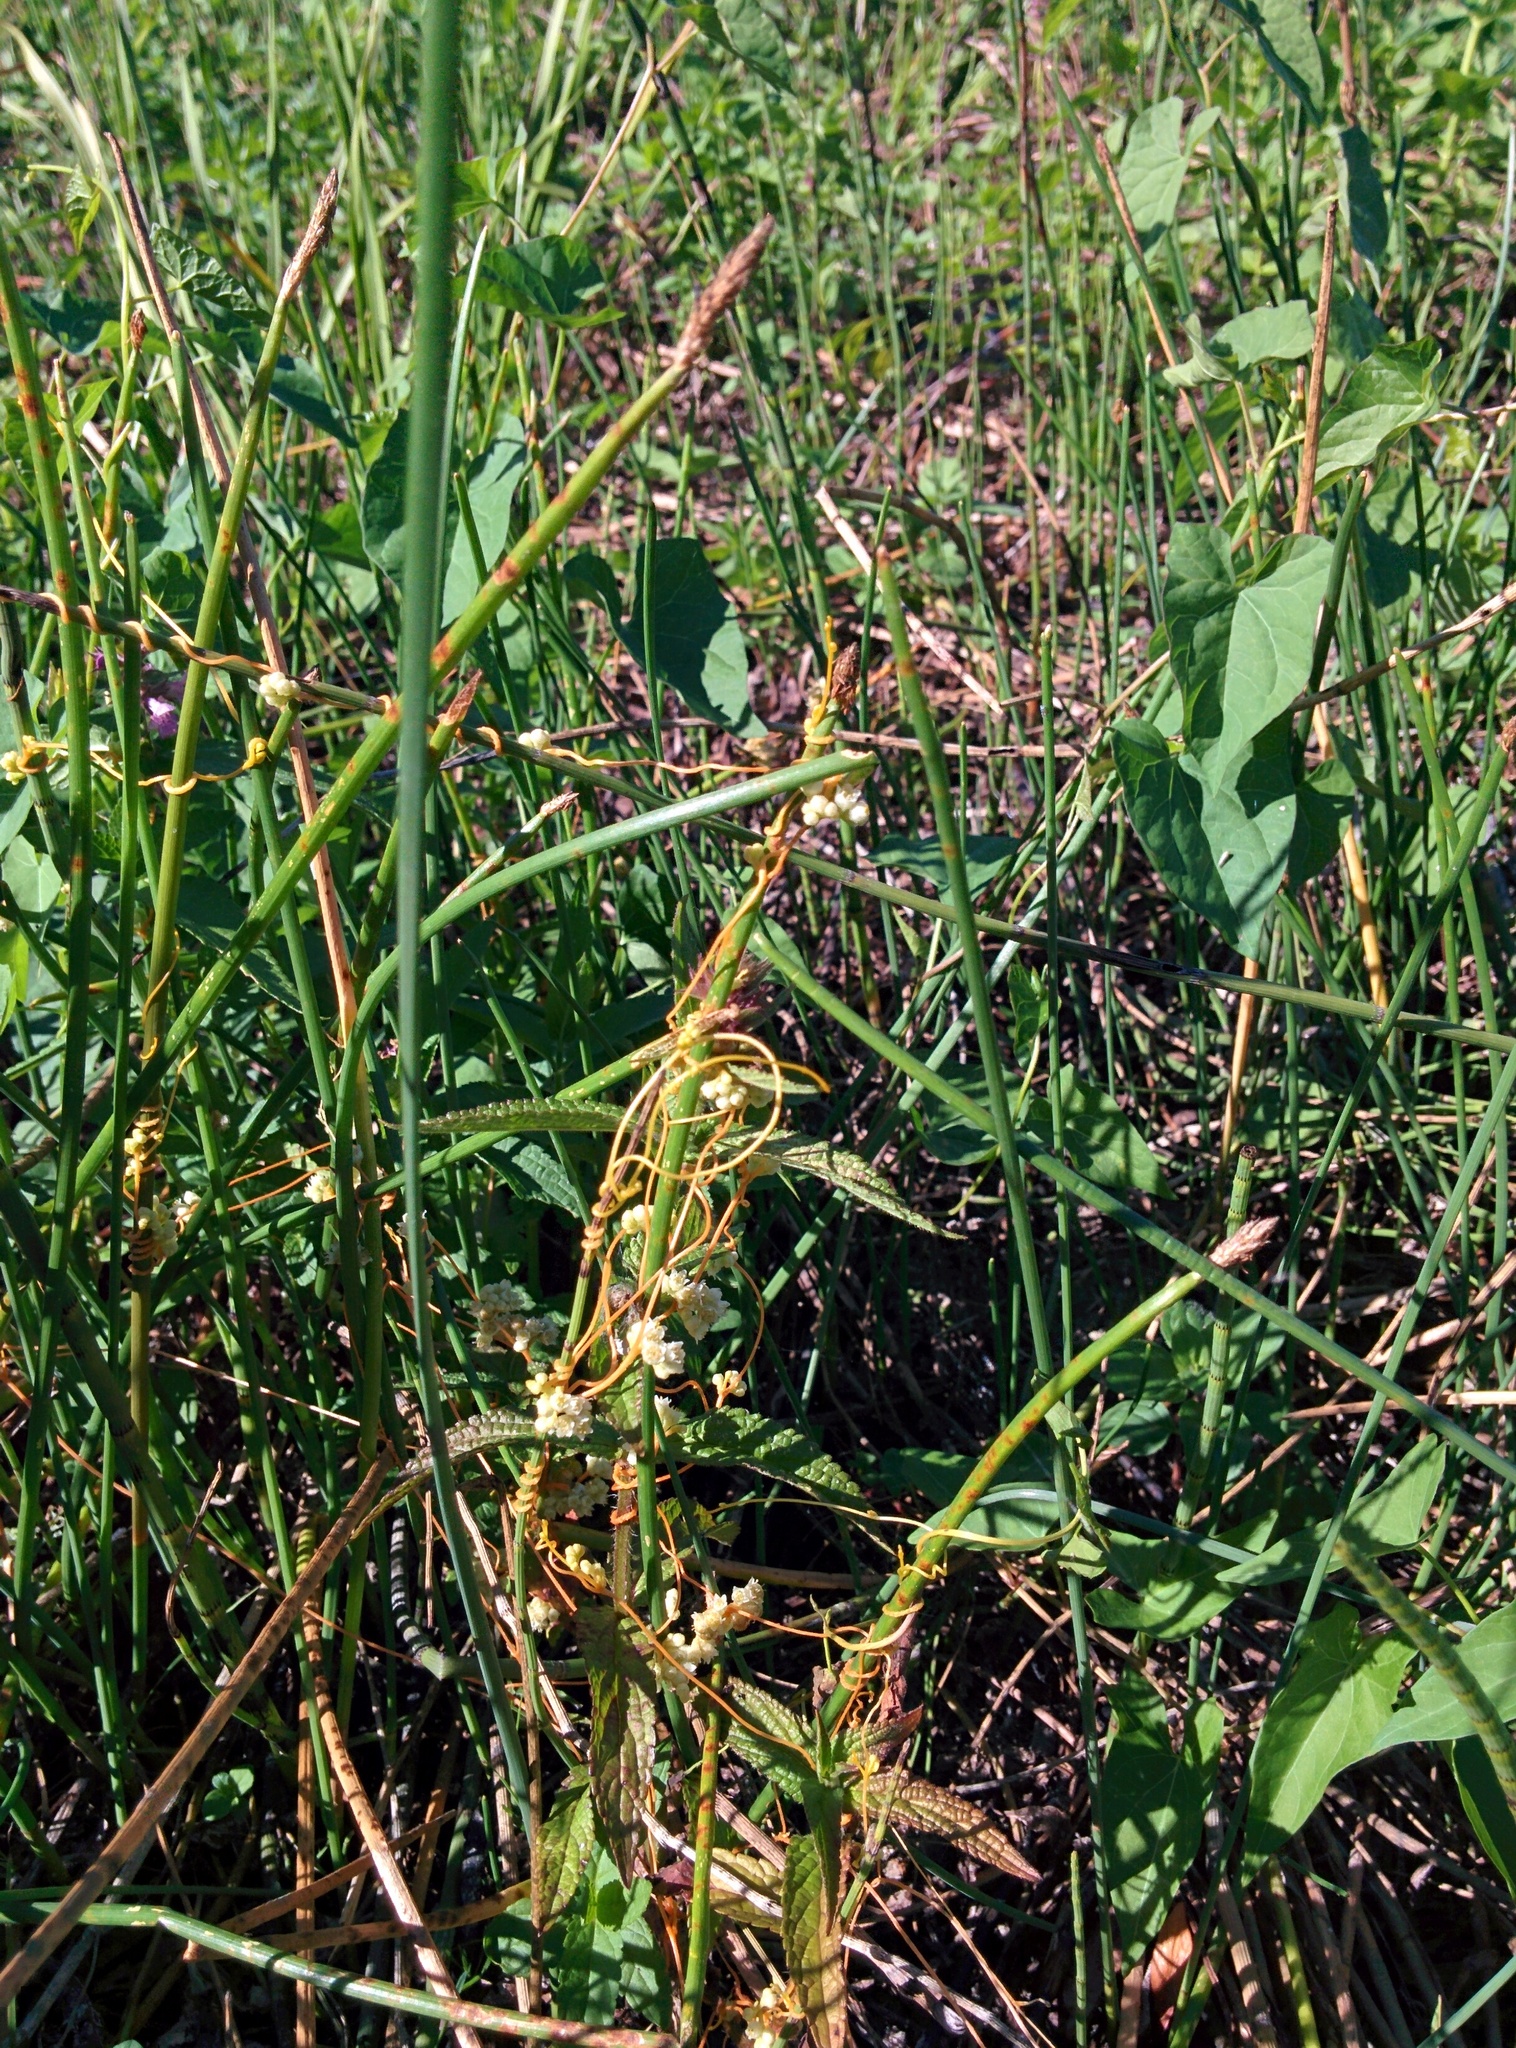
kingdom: Plantae
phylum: Tracheophyta
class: Magnoliopsida
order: Solanales
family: Convolvulaceae
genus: Cuscuta
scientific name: Cuscuta campestris
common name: Yellow dodder
